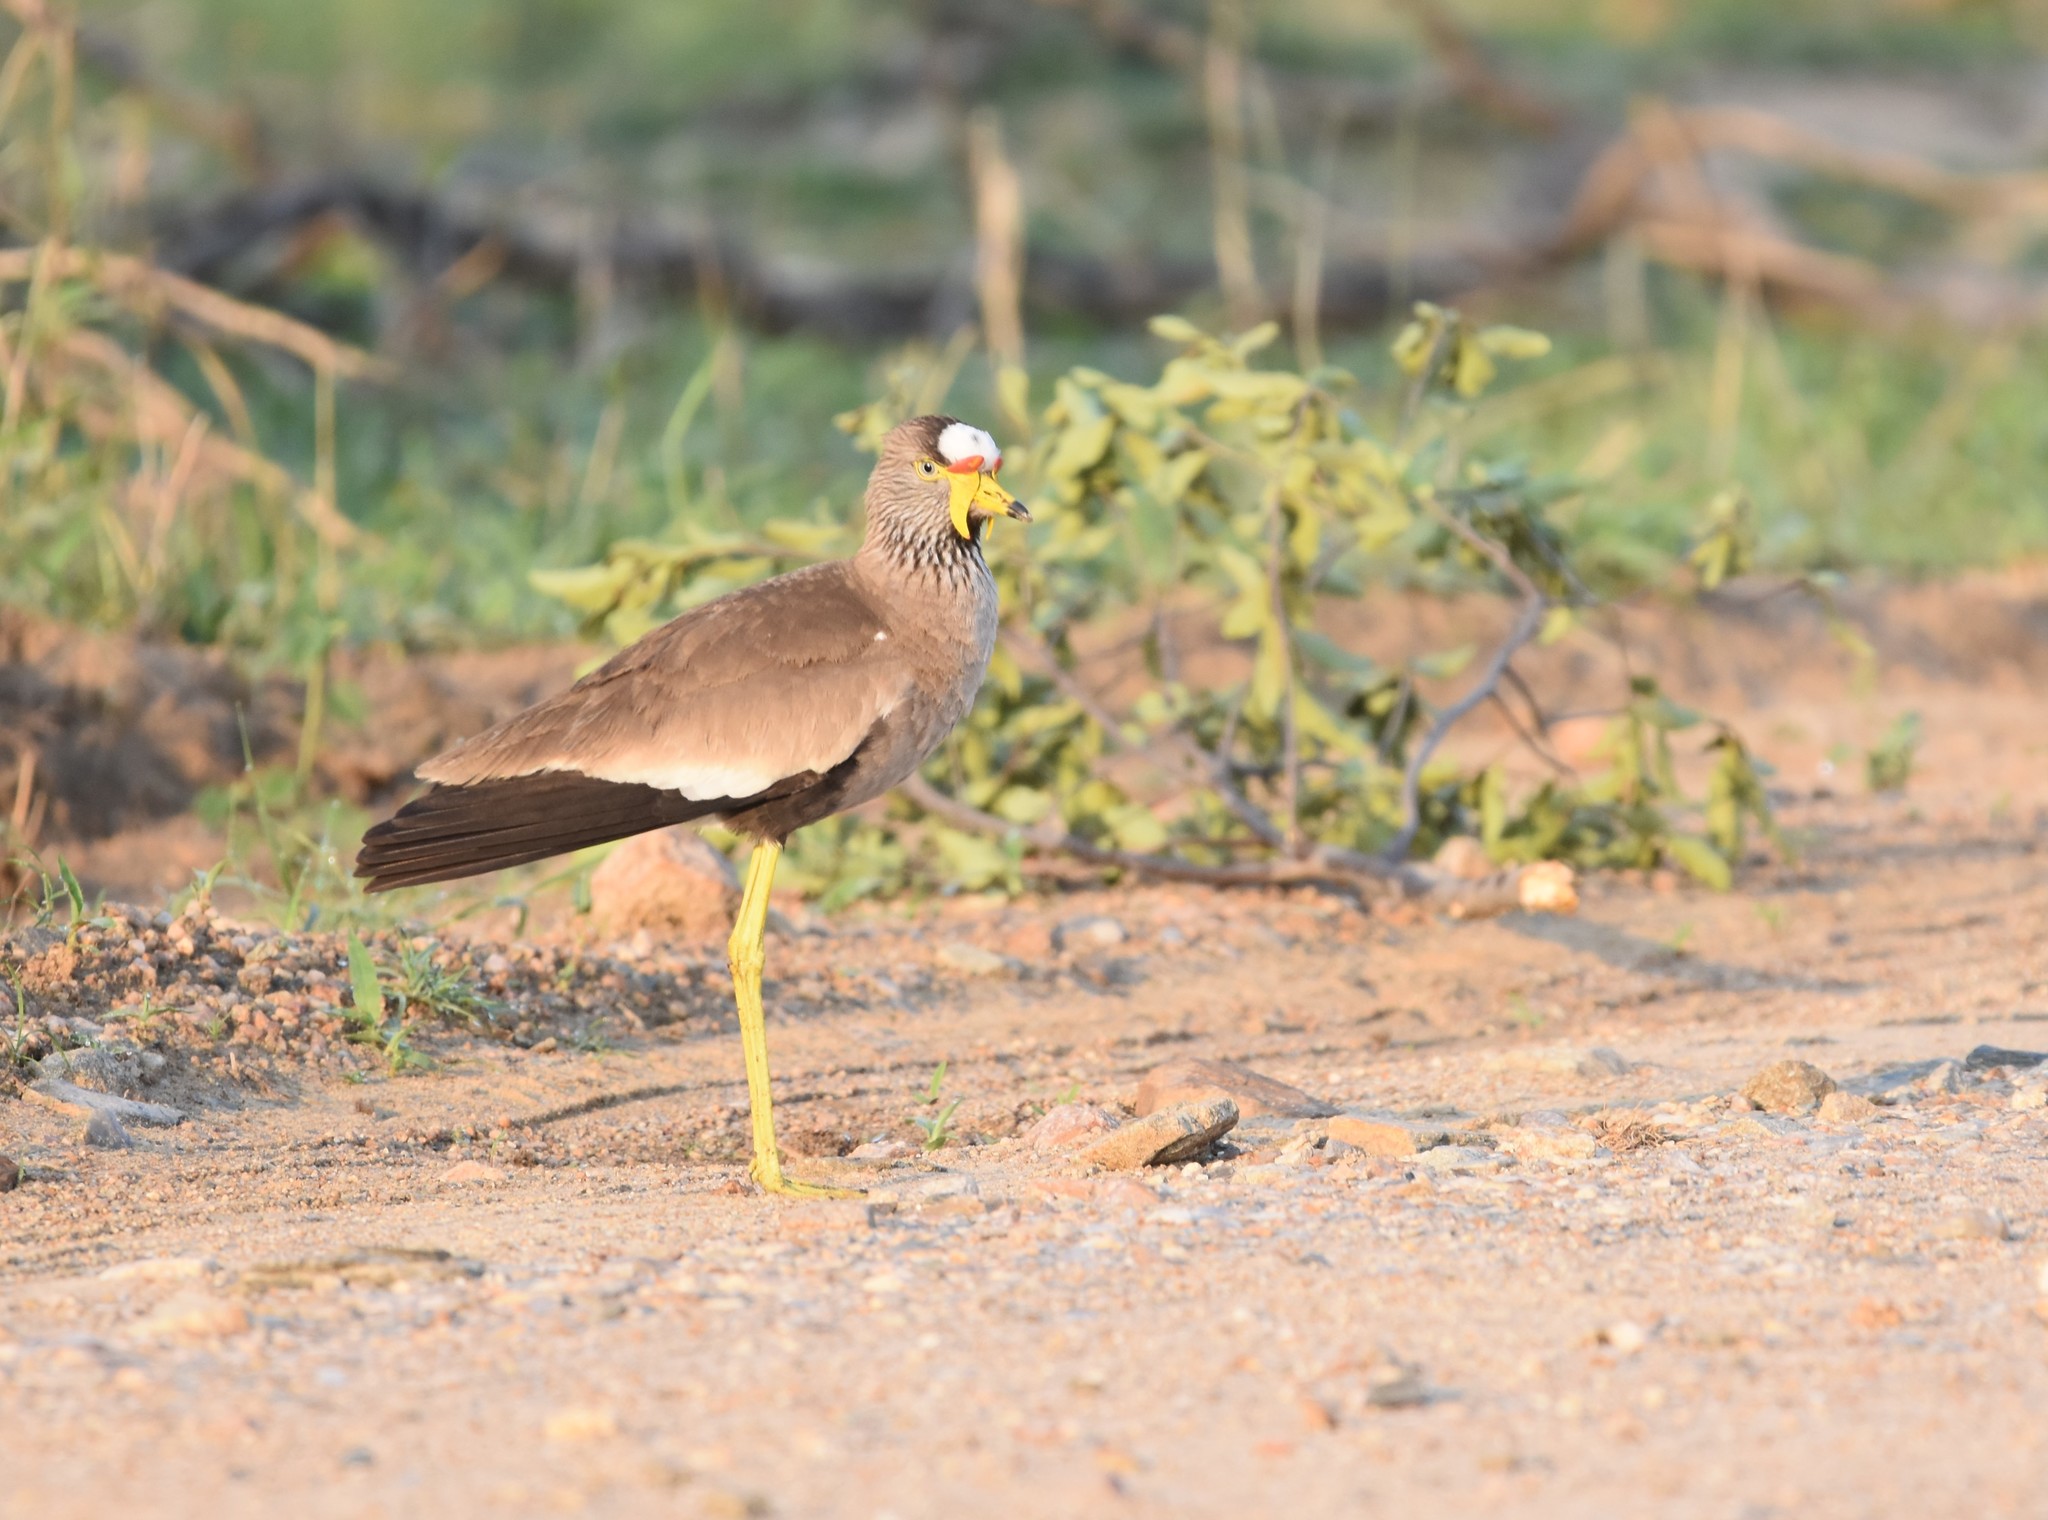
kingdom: Animalia
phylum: Chordata
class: Aves
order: Charadriiformes
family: Charadriidae
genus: Vanellus
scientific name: Vanellus senegallus
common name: African wattled lapwing
